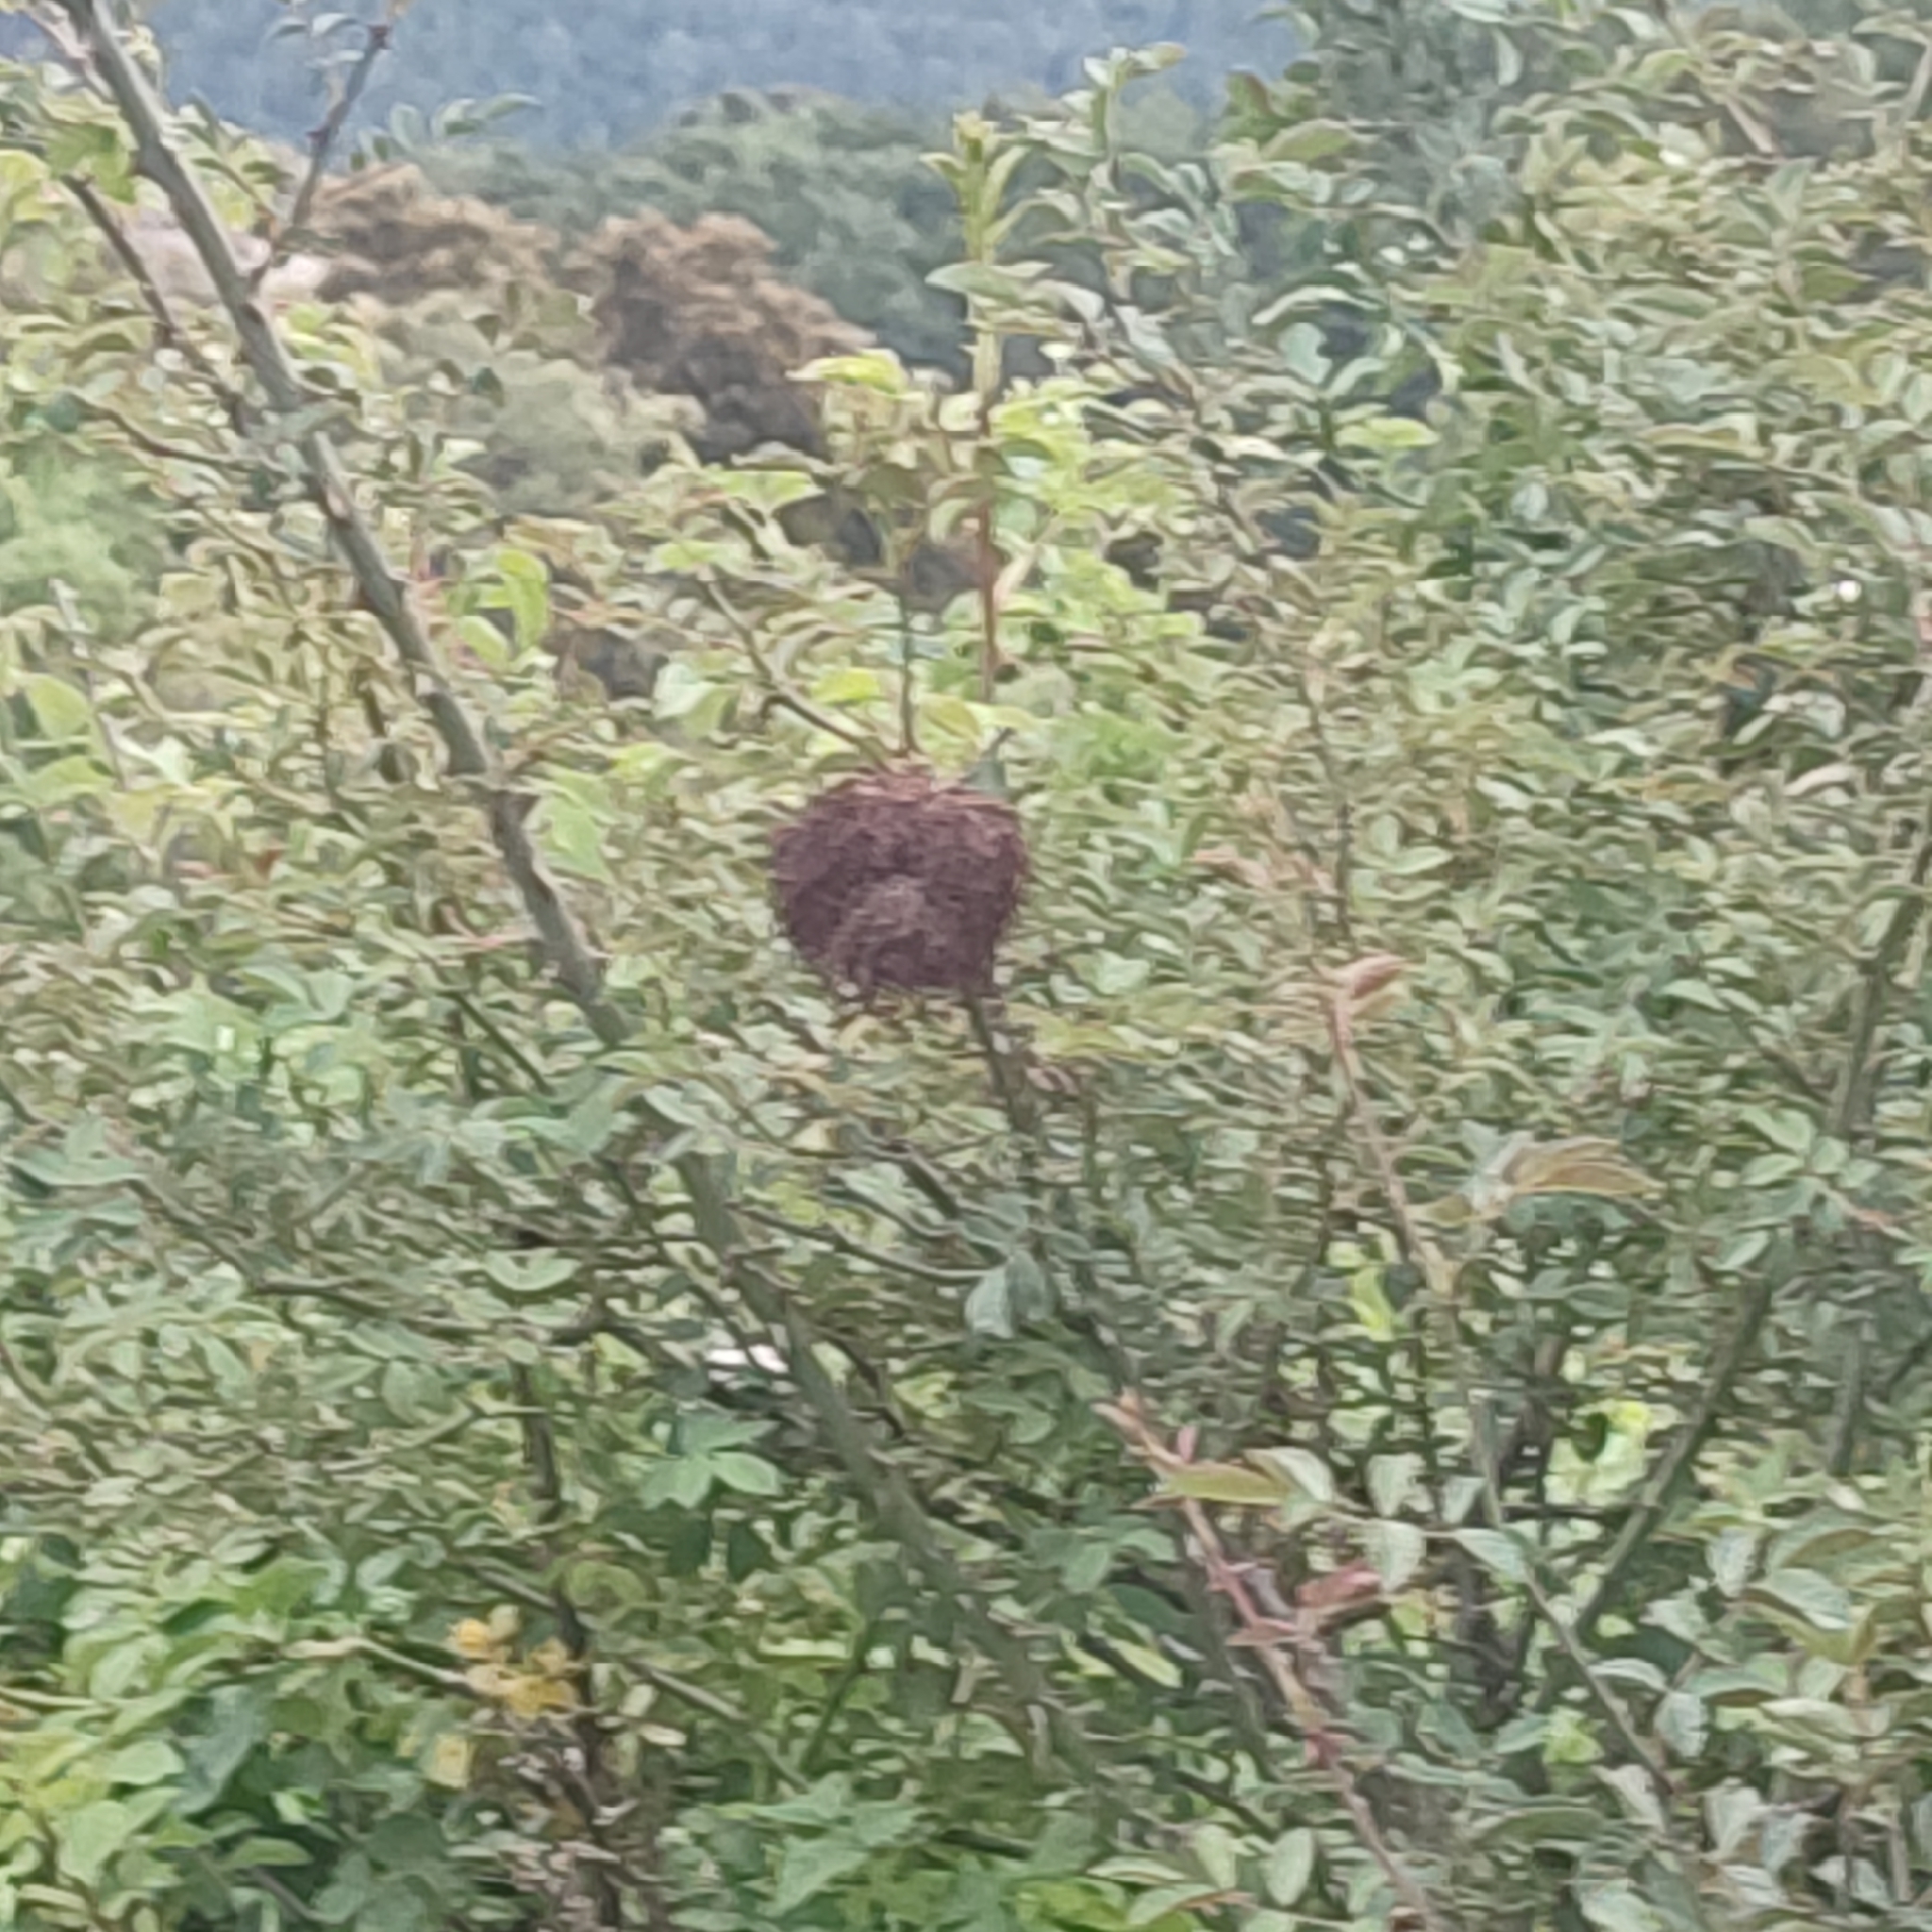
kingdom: Animalia
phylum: Arthropoda
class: Insecta
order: Hymenoptera
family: Cynipidae
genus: Diplolepis
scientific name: Diplolepis rosae
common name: Bedeguar gall
